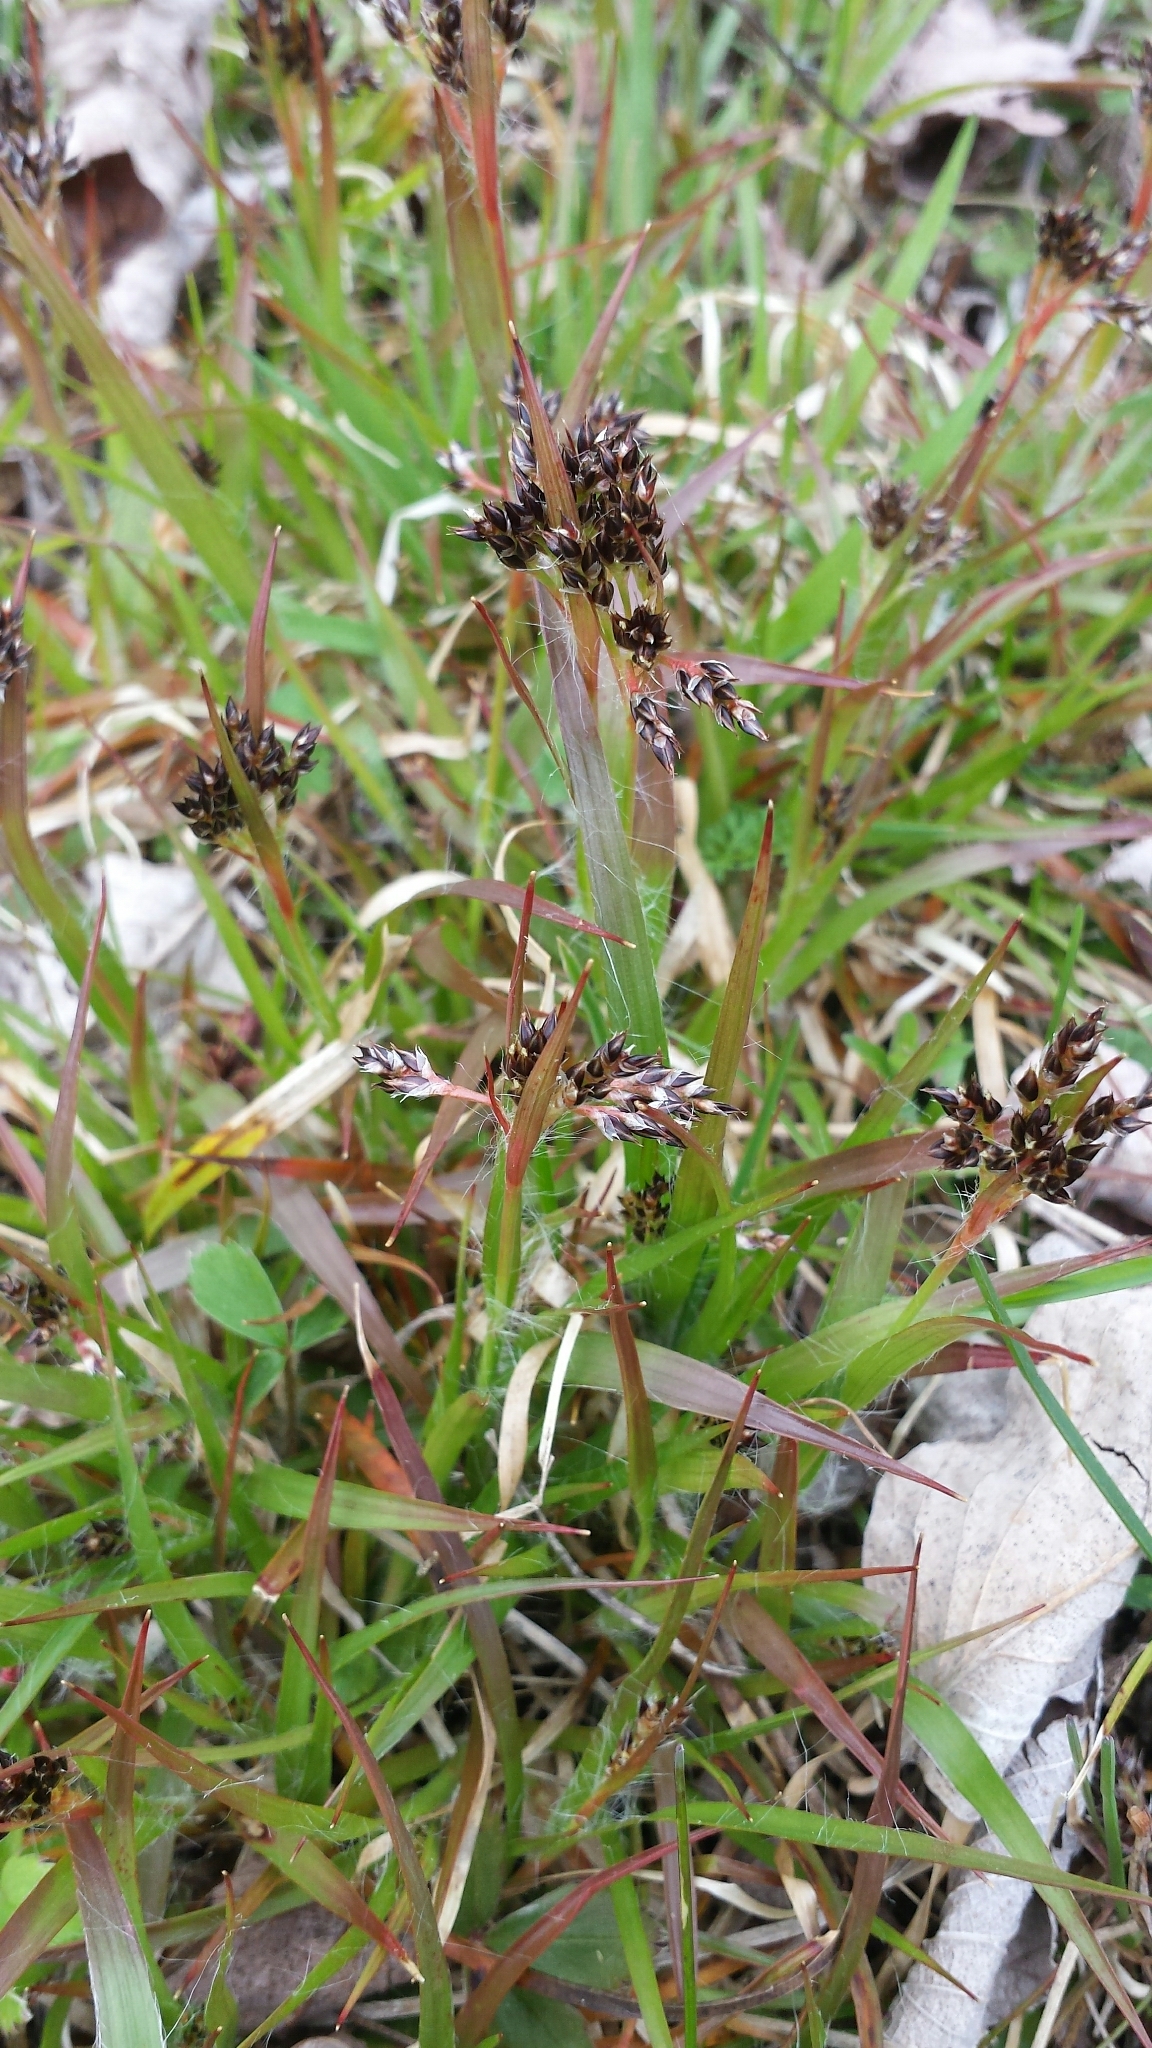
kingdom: Plantae
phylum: Tracheophyta
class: Liliopsida
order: Poales
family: Juncaceae
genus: Luzula
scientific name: Luzula multiflora
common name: Heath wood-rush
